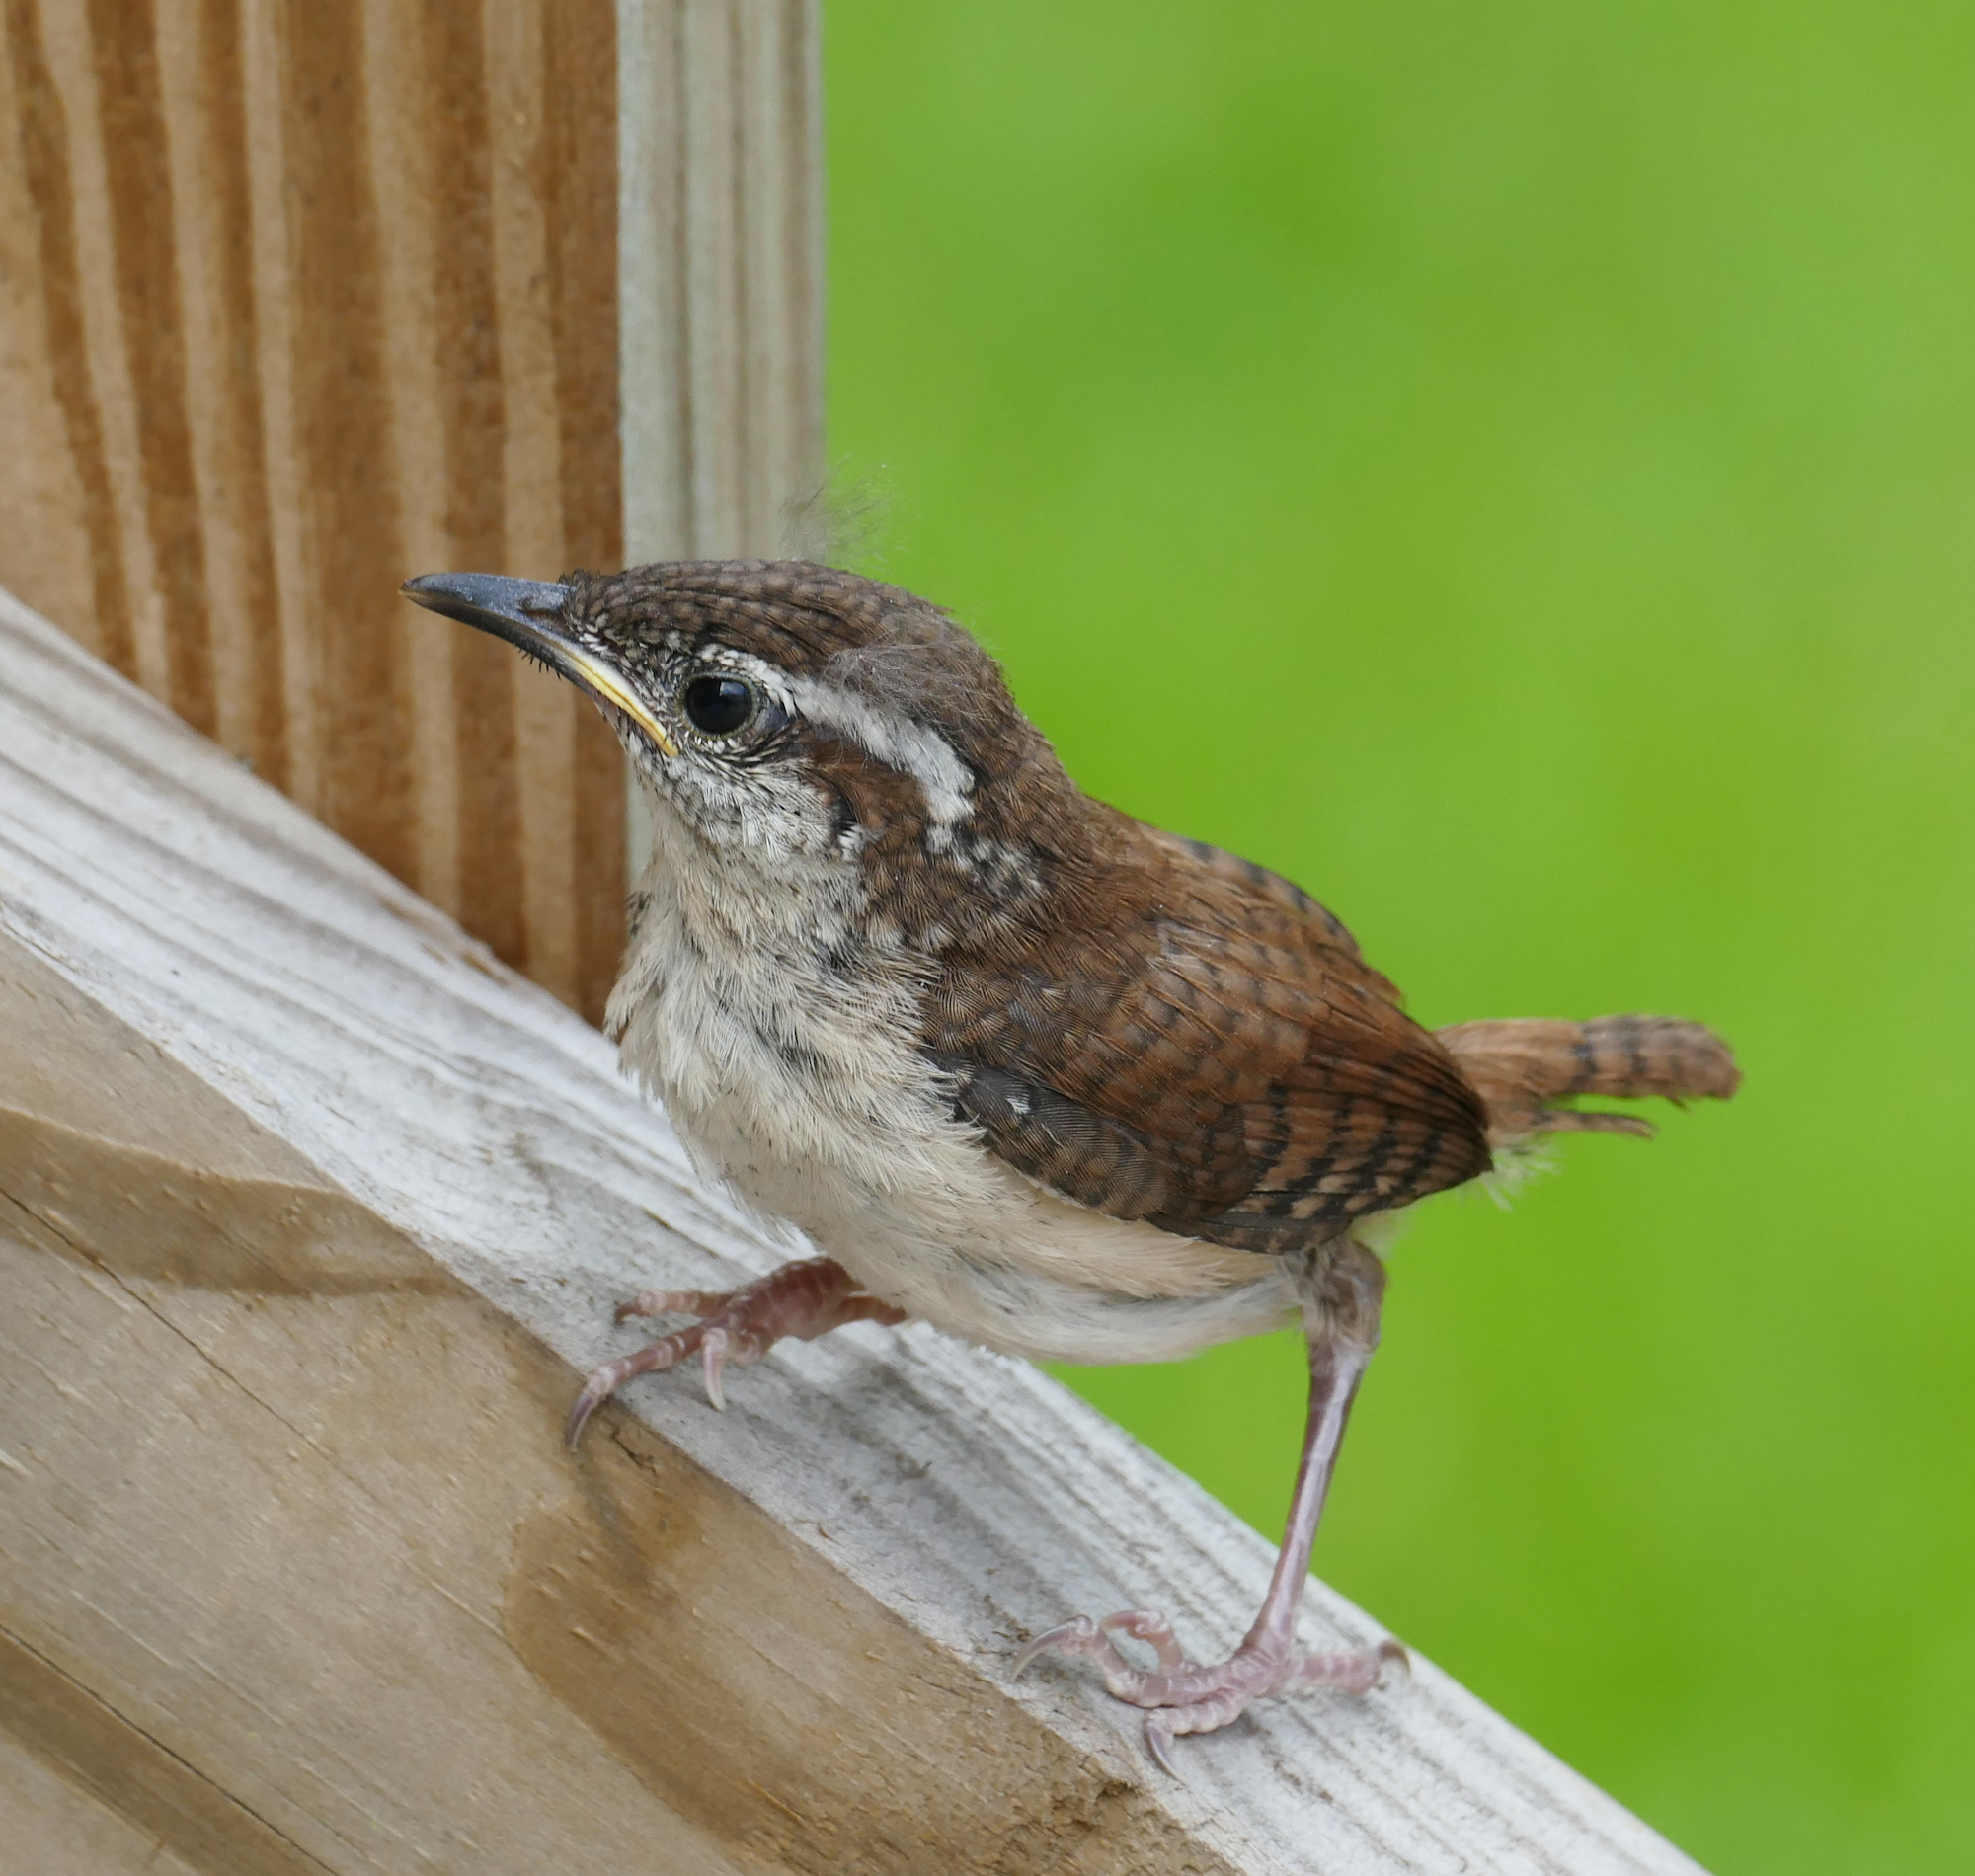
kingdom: Animalia
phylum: Chordata
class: Aves
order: Passeriformes
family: Troglodytidae
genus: Thryothorus
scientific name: Thryothorus ludovicianus
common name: Carolina wren
